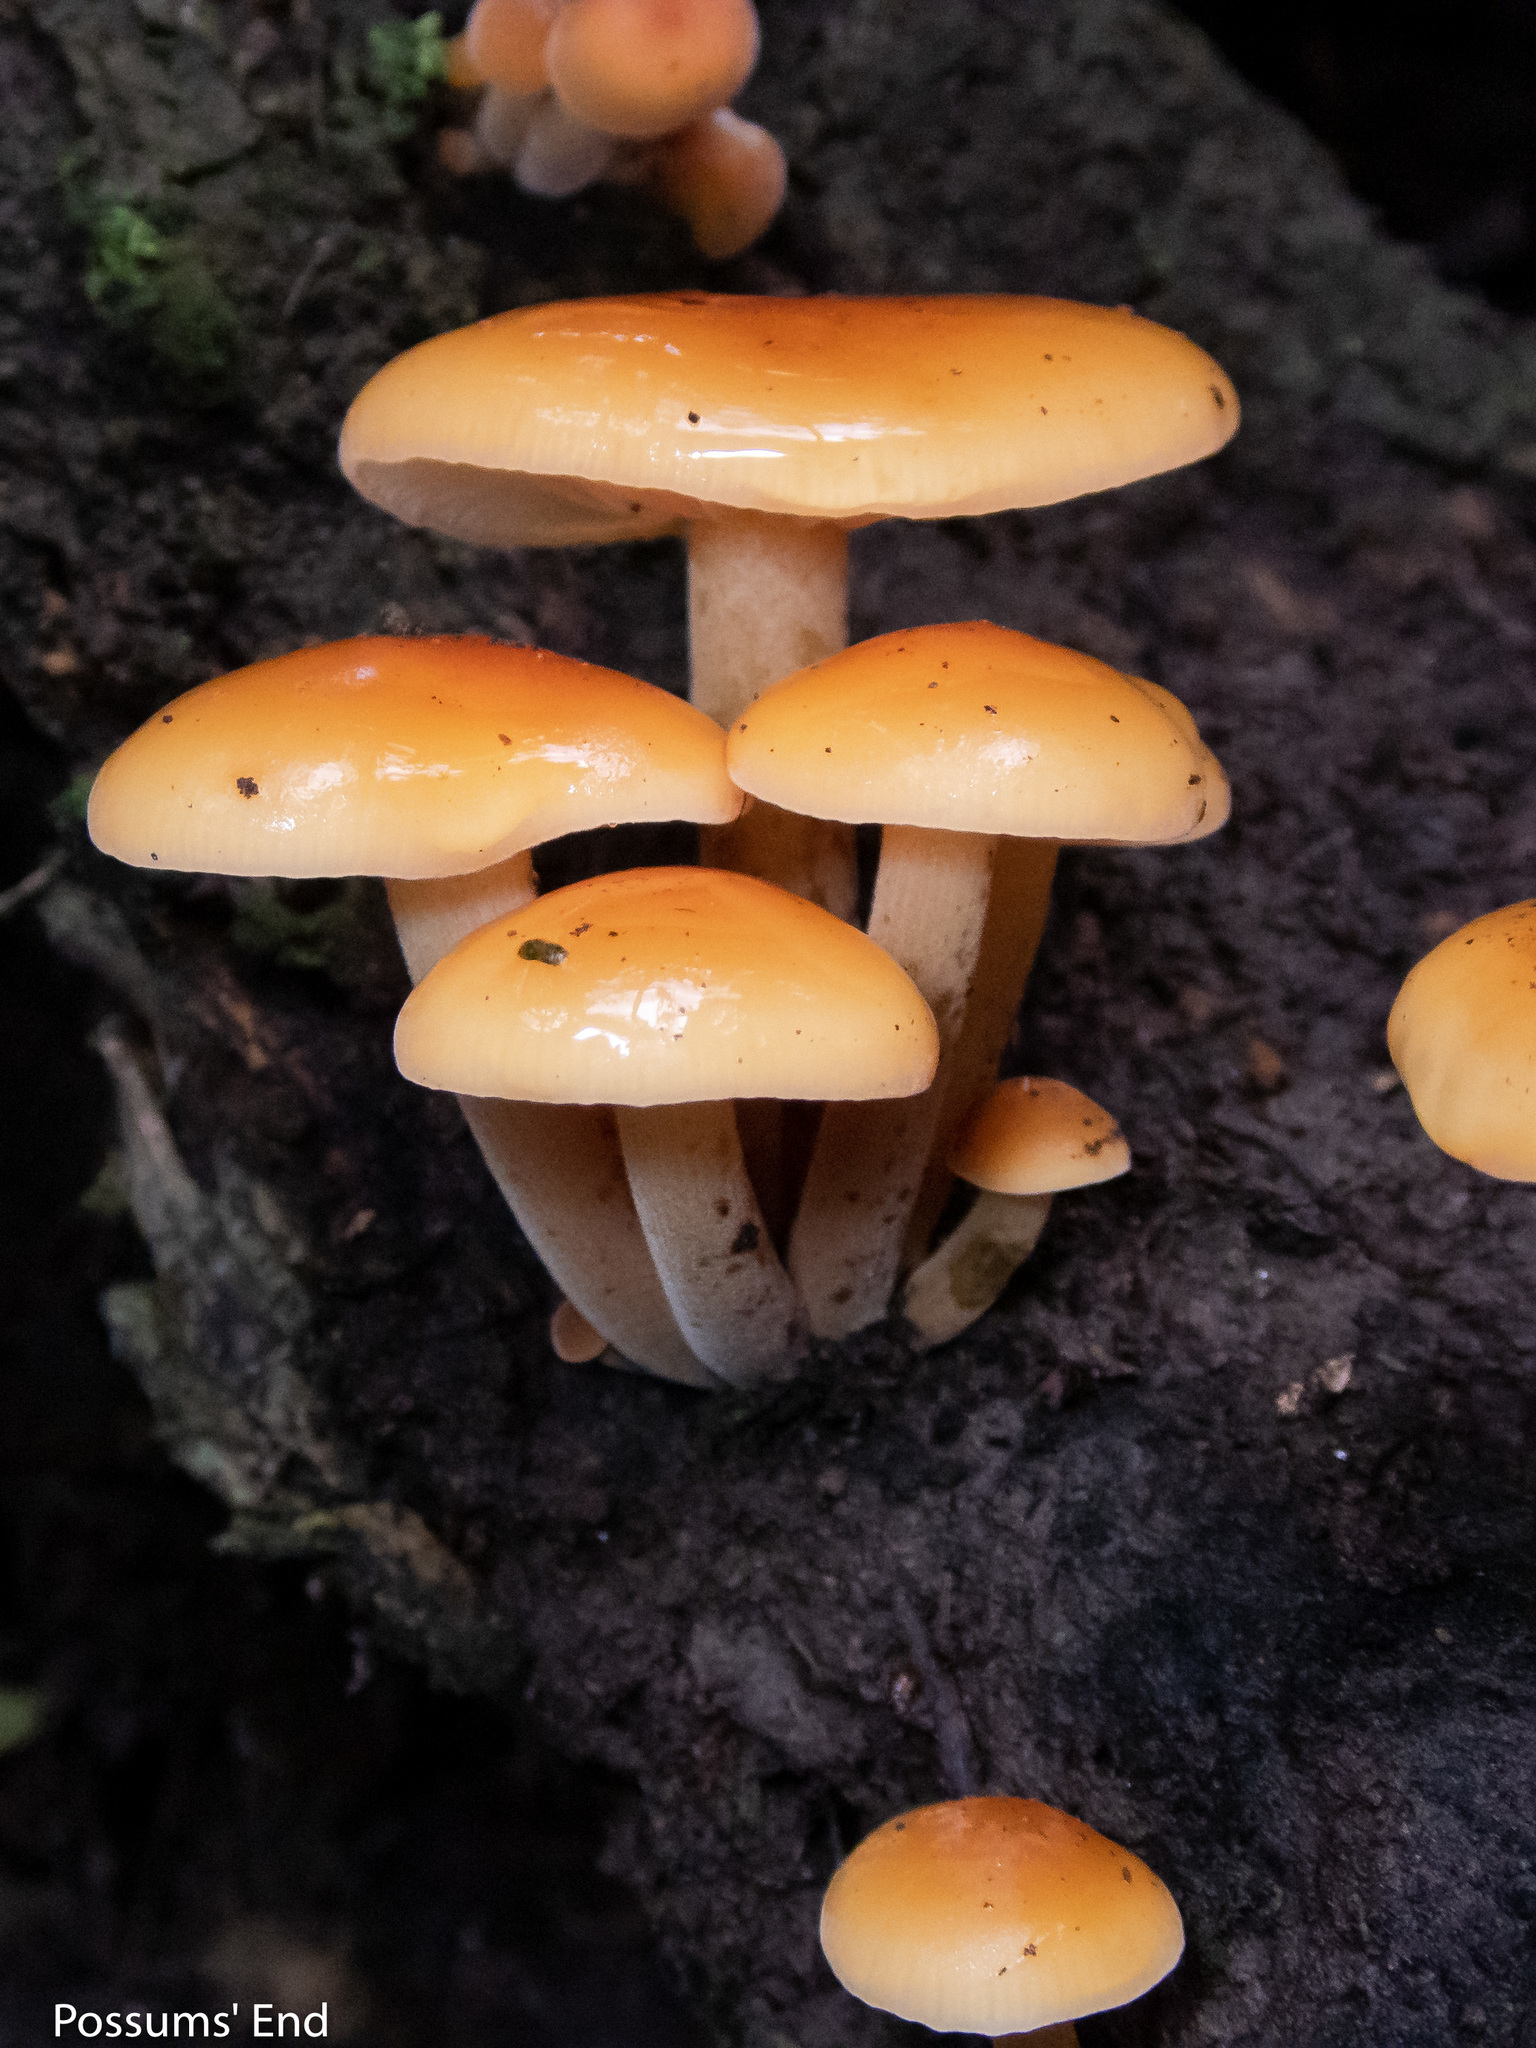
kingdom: Fungi
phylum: Basidiomycota
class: Agaricomycetes
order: Agaricales
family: Physalacriaceae
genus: Flammulina
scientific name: Flammulina velutipes
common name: Velvet shank
